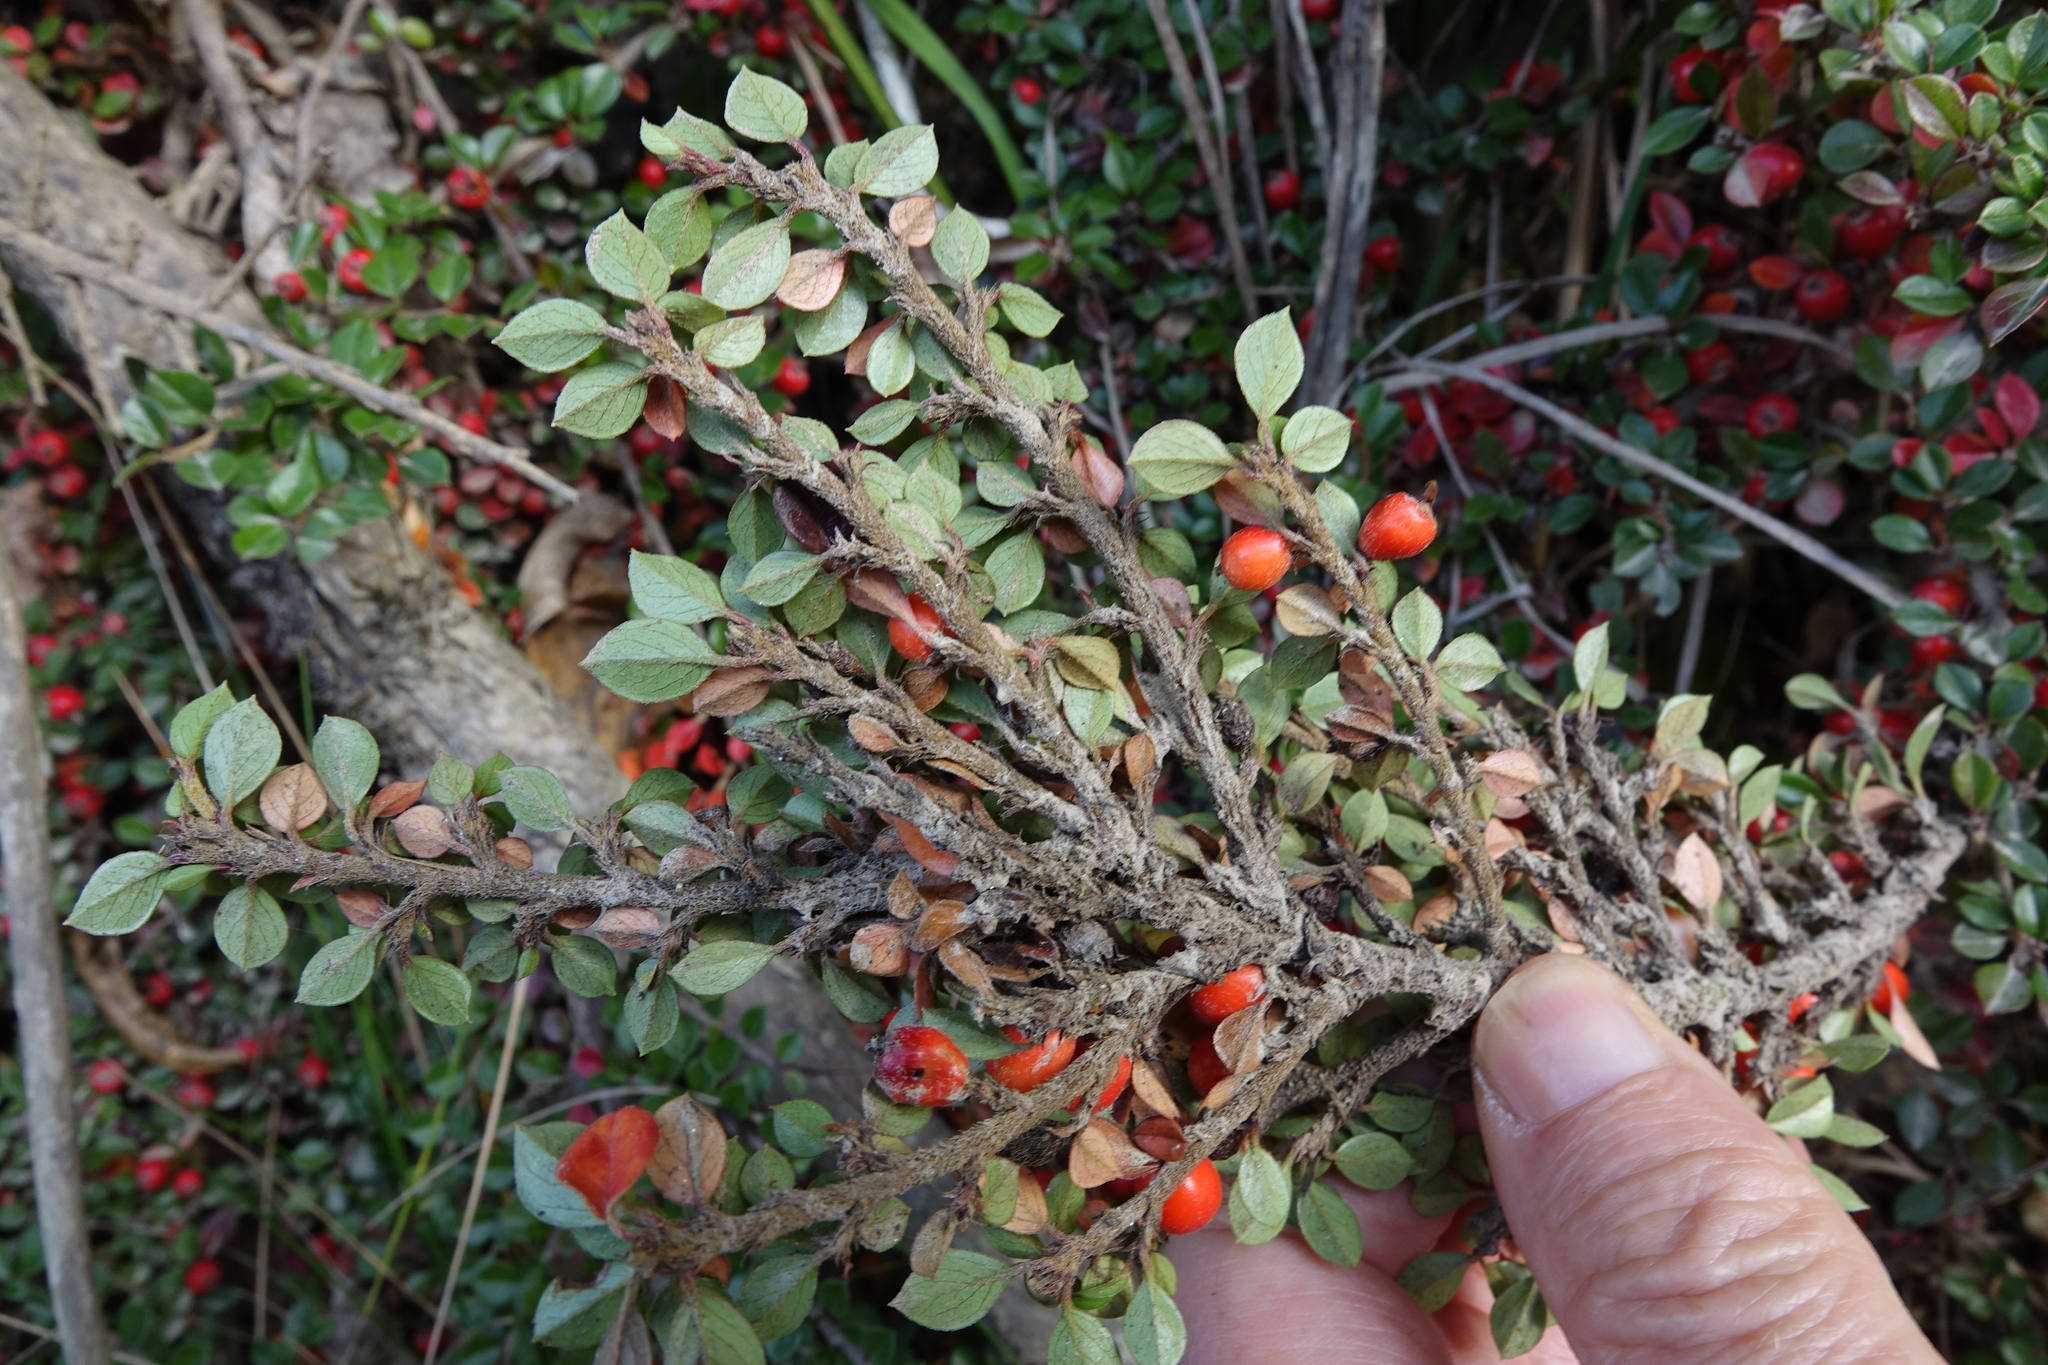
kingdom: Plantae
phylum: Tracheophyta
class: Magnoliopsida
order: Rosales
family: Rosaceae
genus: Cotoneaster
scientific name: Cotoneaster horizontalis
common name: Wall cotoneaster
